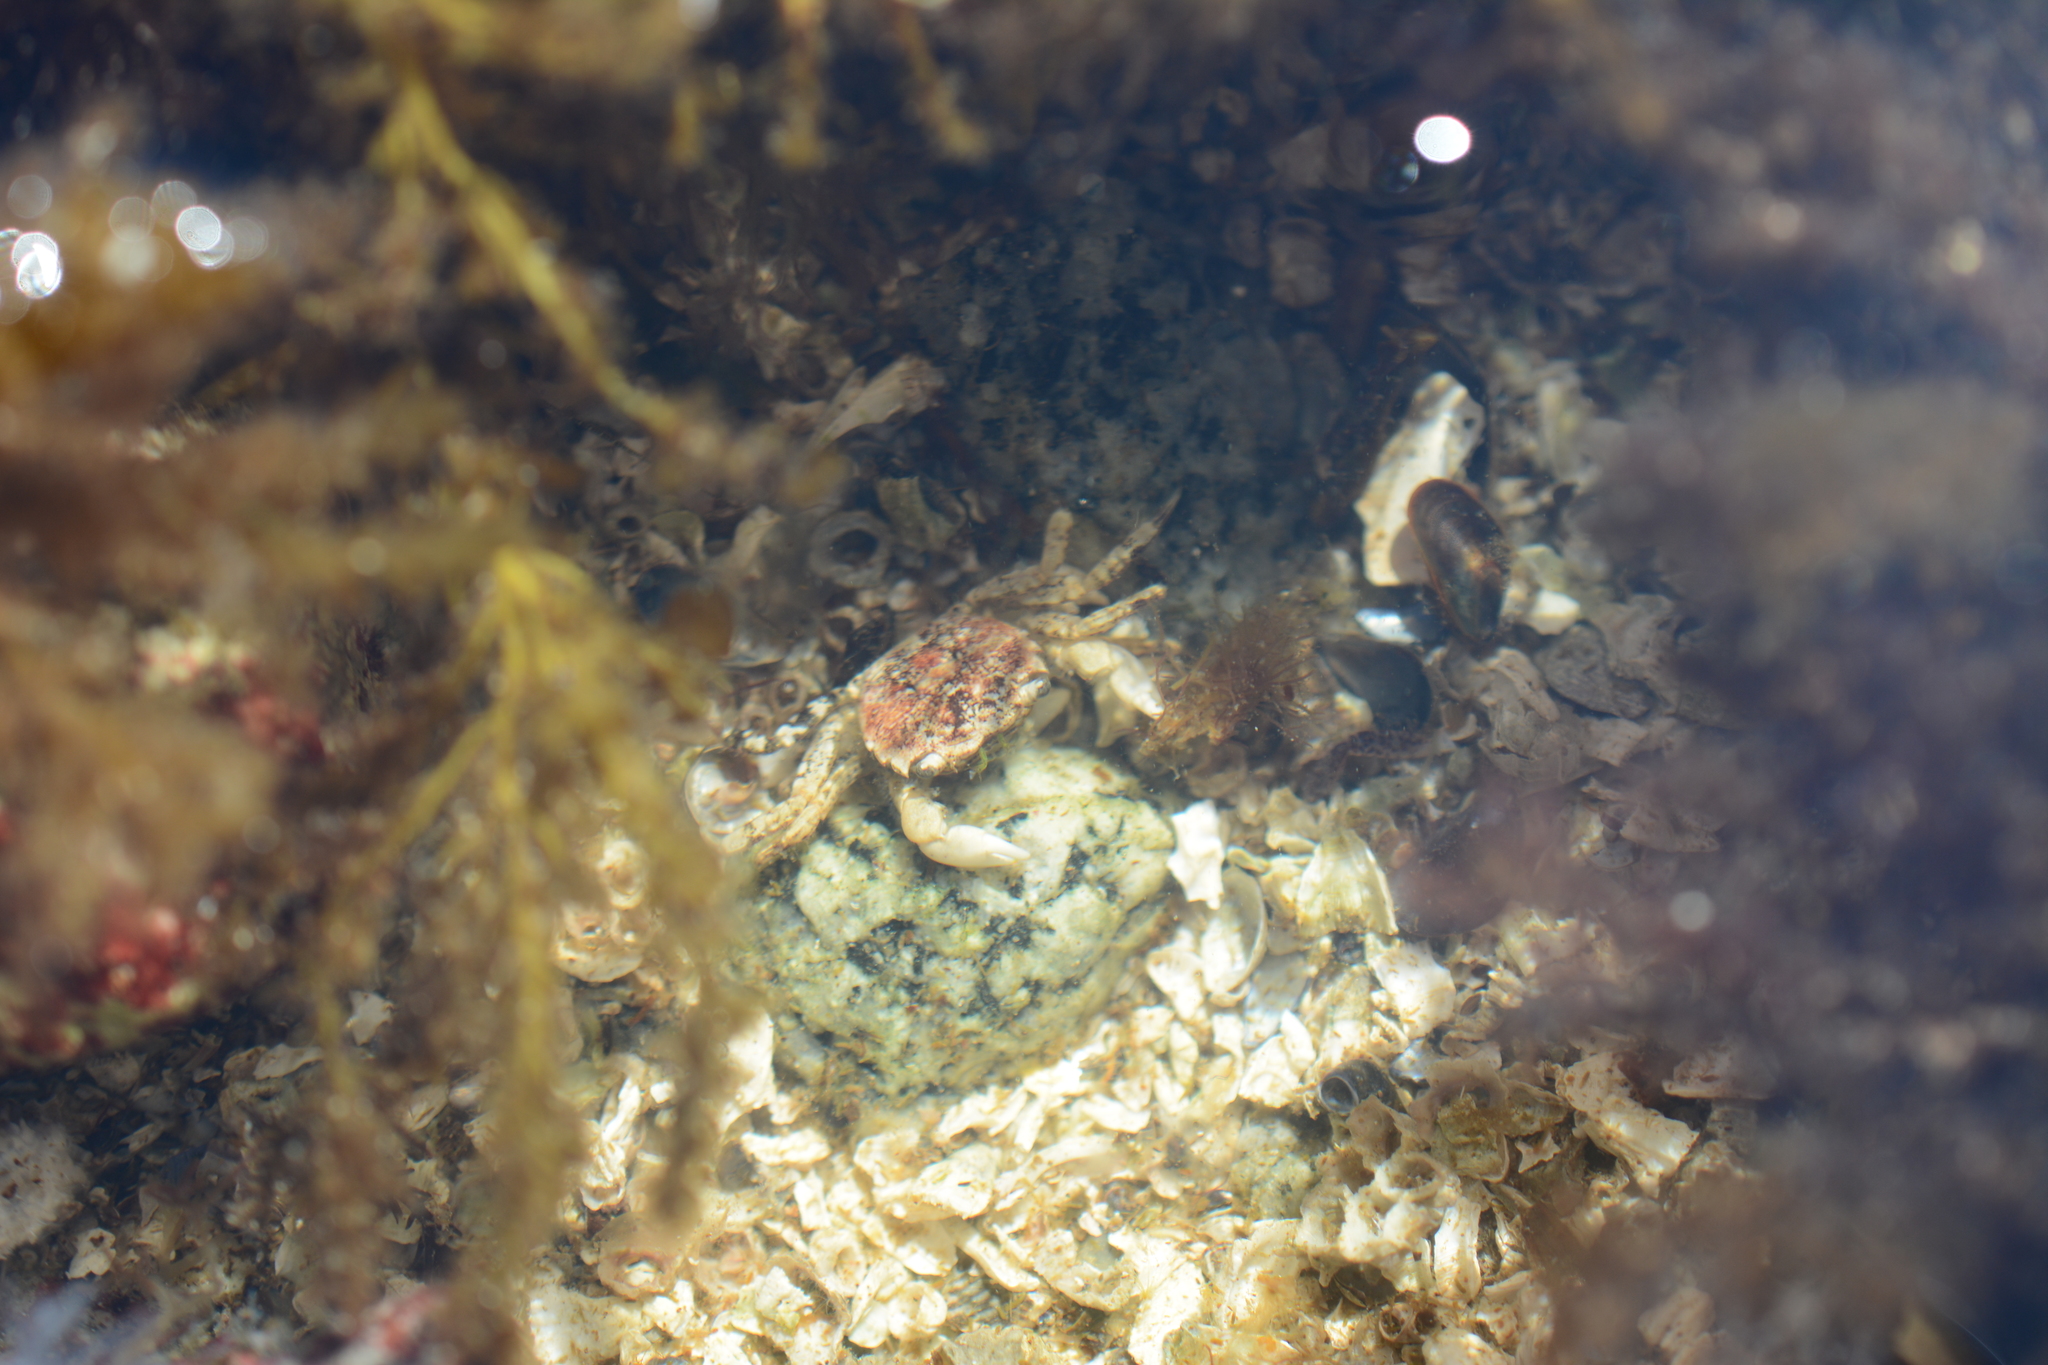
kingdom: Animalia
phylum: Arthropoda
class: Malacostraca
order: Decapoda
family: Varunidae
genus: Hemigrapsus
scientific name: Hemigrapsus oregonensis
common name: Yellow shore crab
